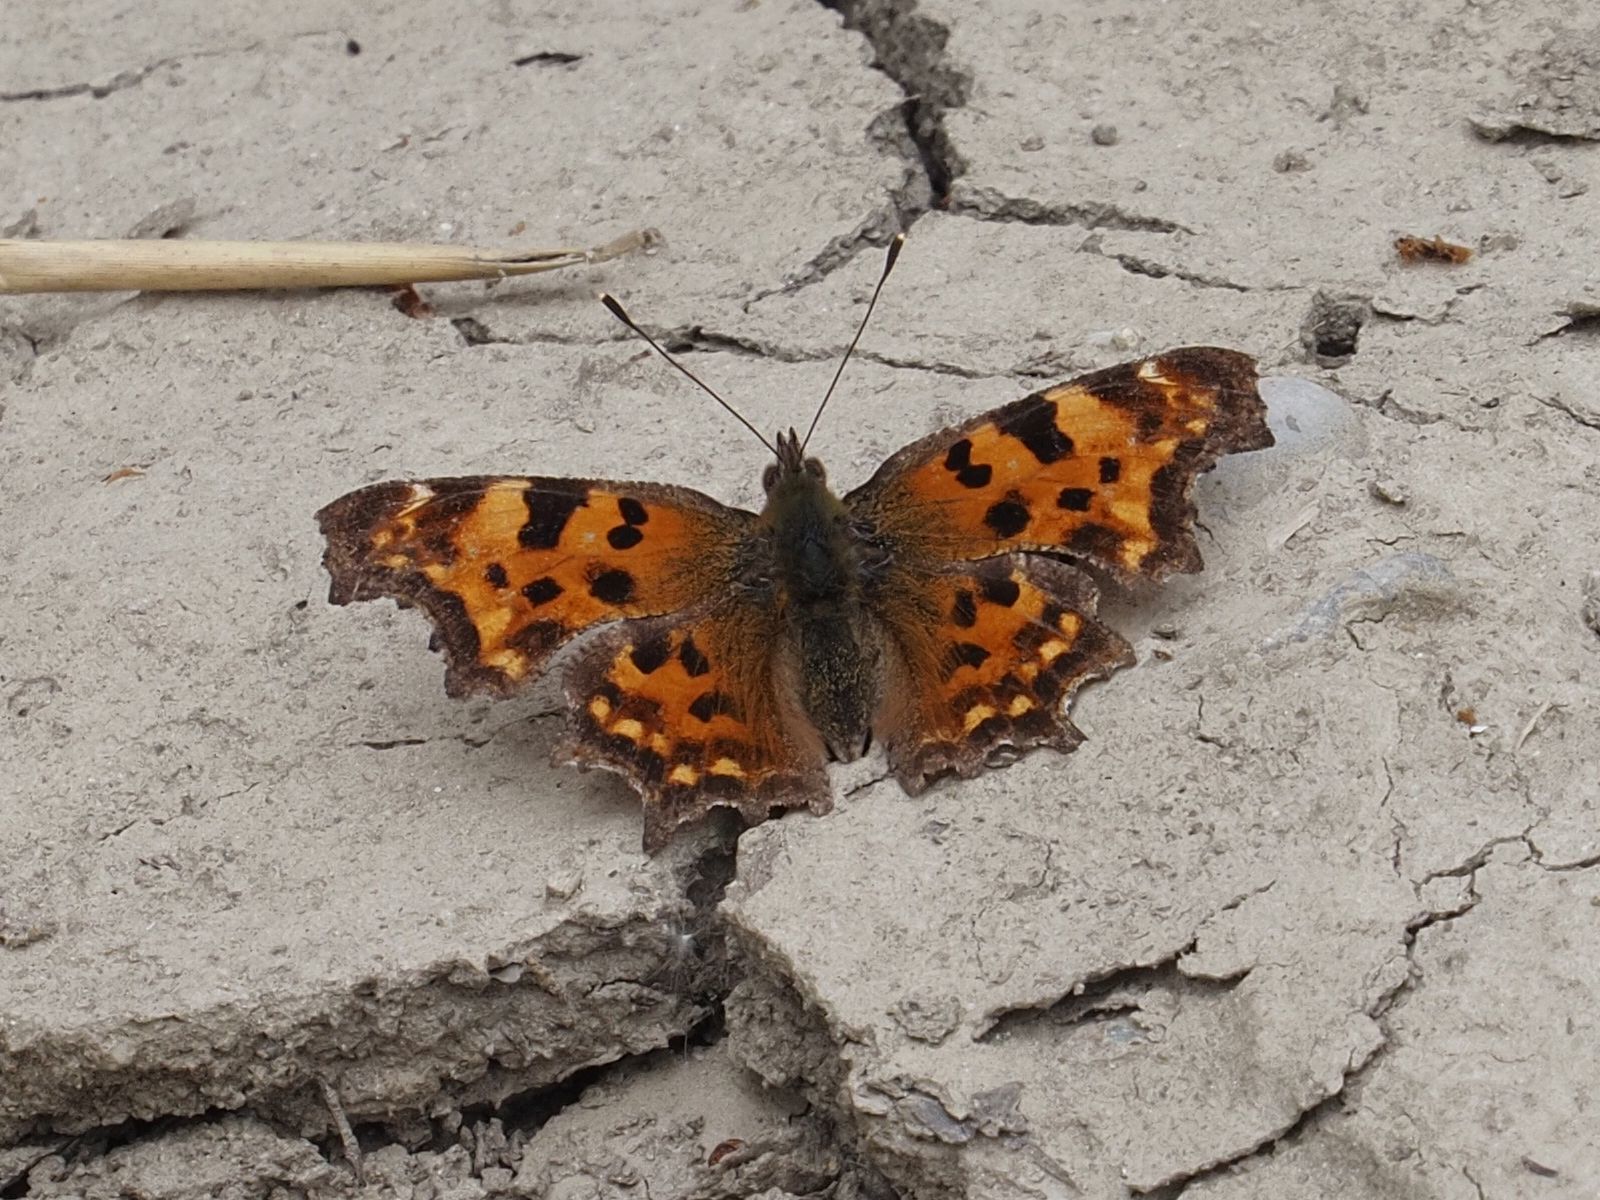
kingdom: Animalia
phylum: Arthropoda
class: Insecta
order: Lepidoptera
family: Nymphalidae
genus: Polygonia
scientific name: Polygonia c-album
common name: Comma
